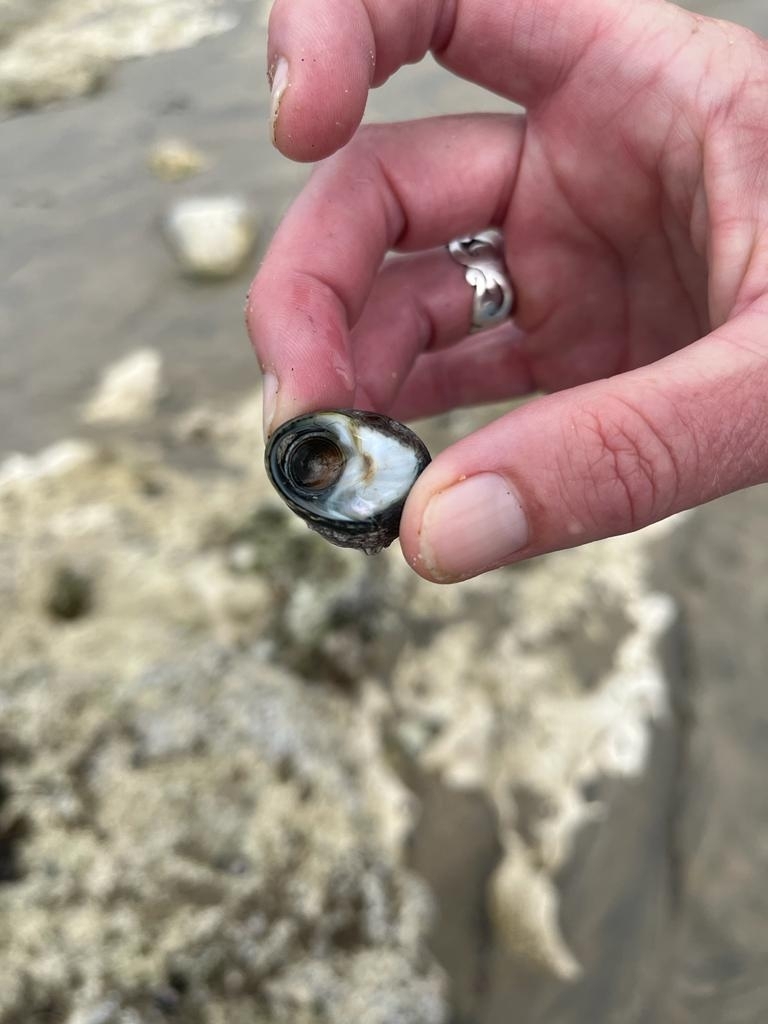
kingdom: Animalia
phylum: Mollusca
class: Gastropoda
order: Trochida
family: Trochidae
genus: Phorcus
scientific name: Phorcus lineatus
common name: Toothed top shell
